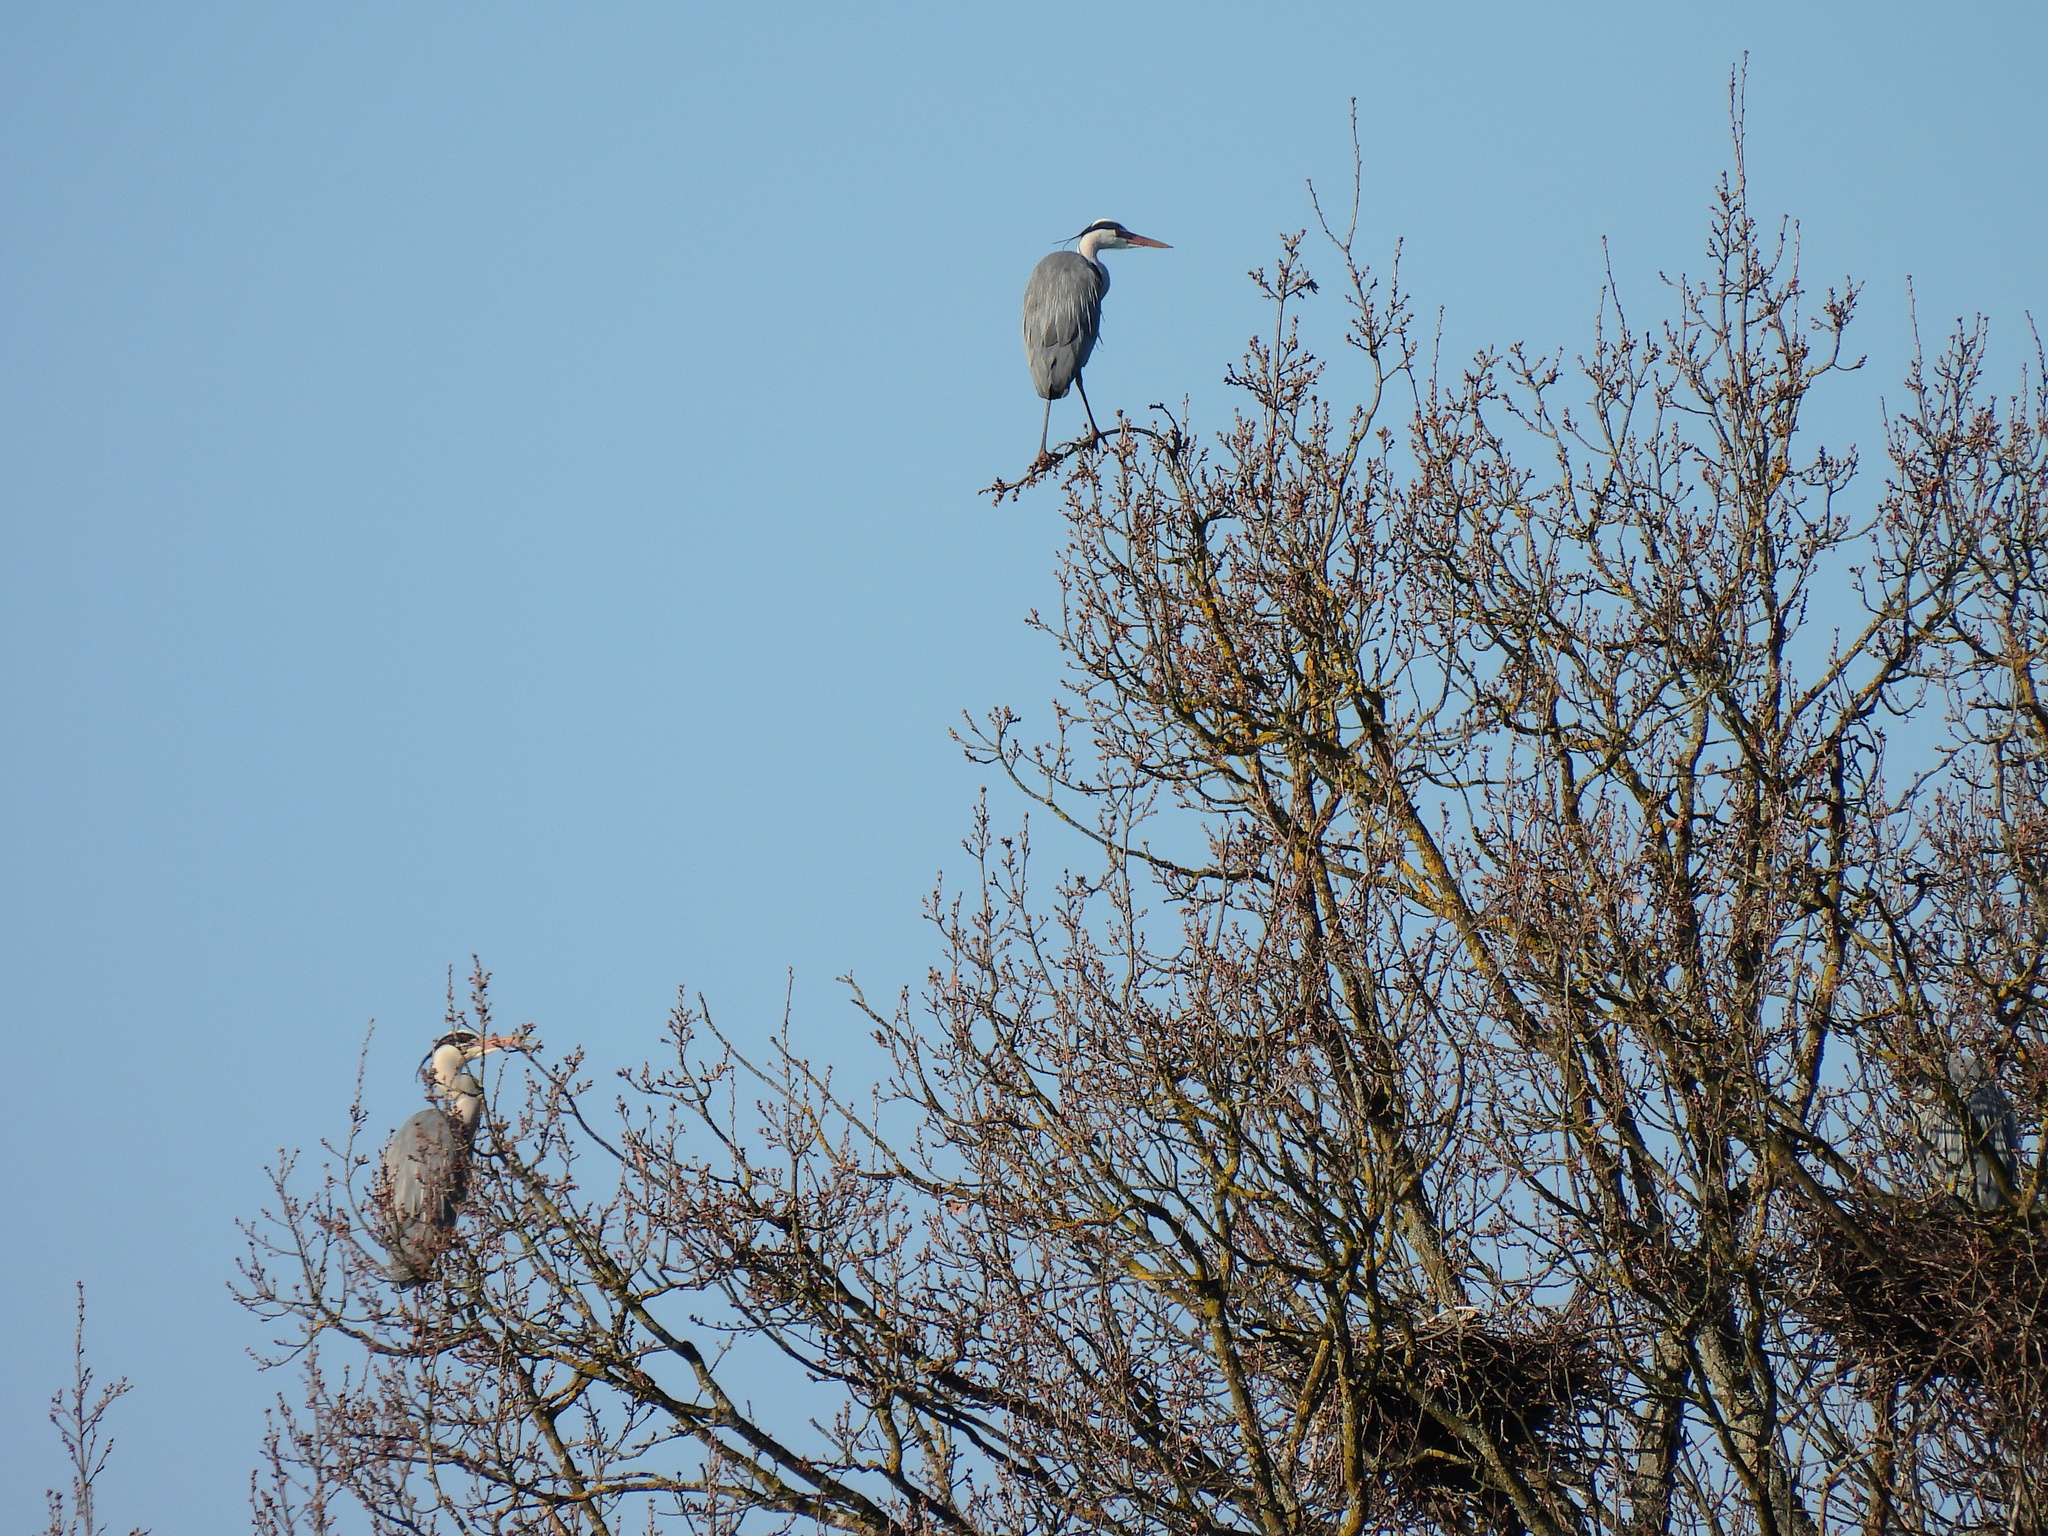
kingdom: Animalia
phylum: Chordata
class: Aves
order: Pelecaniformes
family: Ardeidae
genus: Ardea
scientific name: Ardea cinerea
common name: Grey heron
